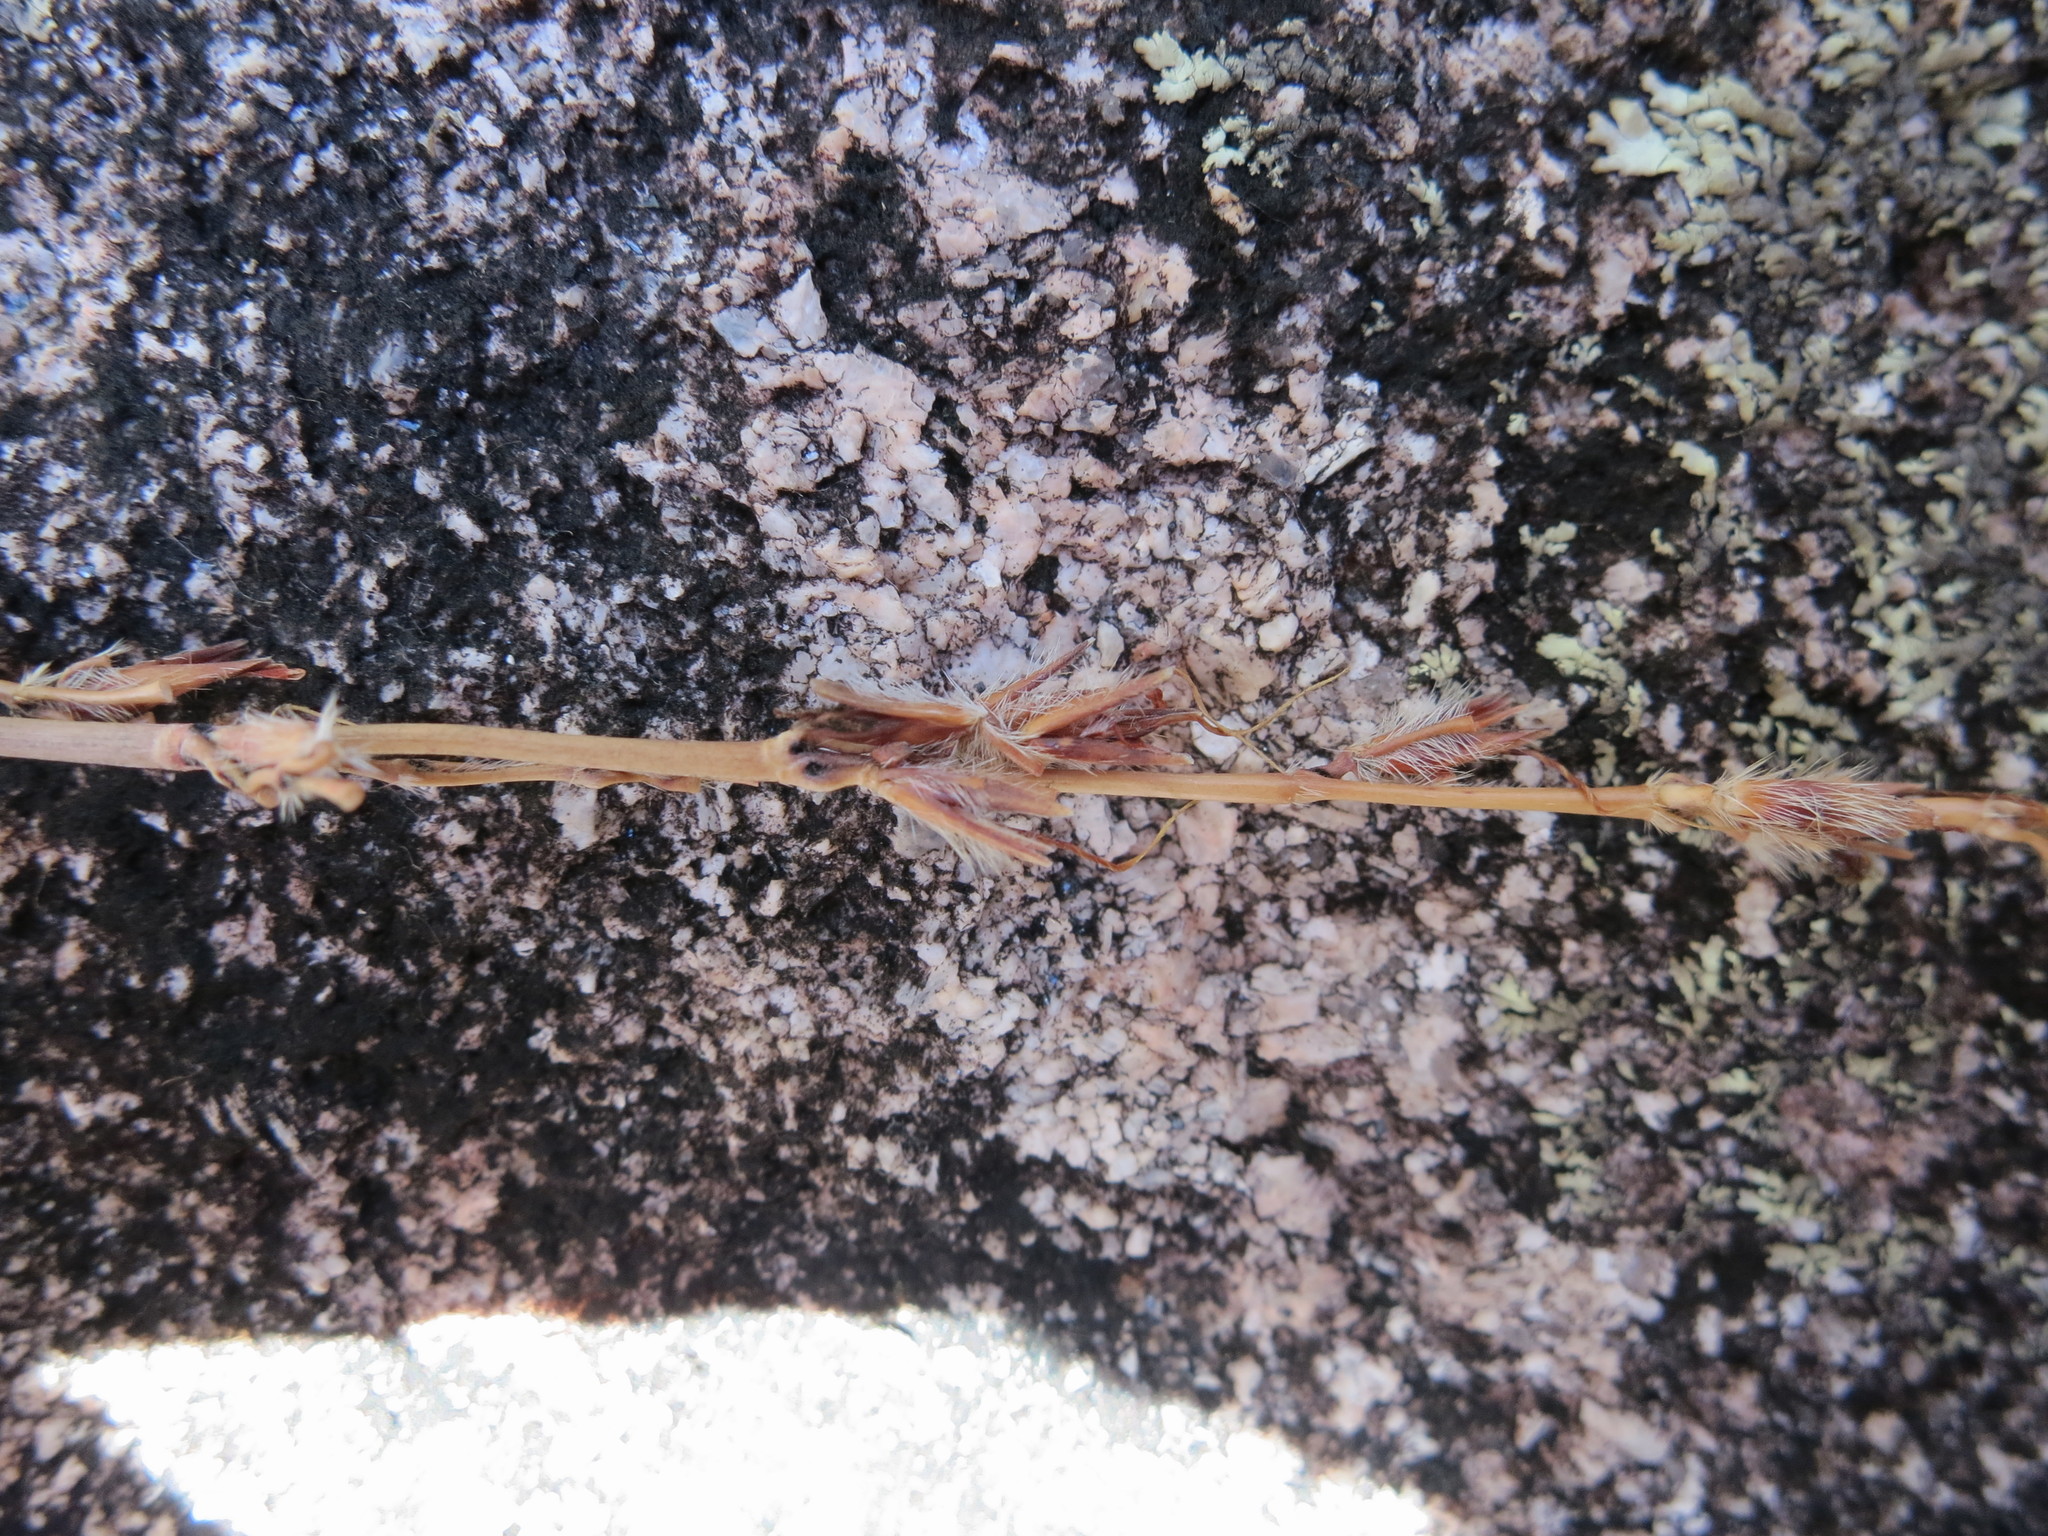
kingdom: Plantae
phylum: Tracheophyta
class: Liliopsida
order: Poales
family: Poaceae
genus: Lasiorhachis
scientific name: Lasiorhachis viguieri
